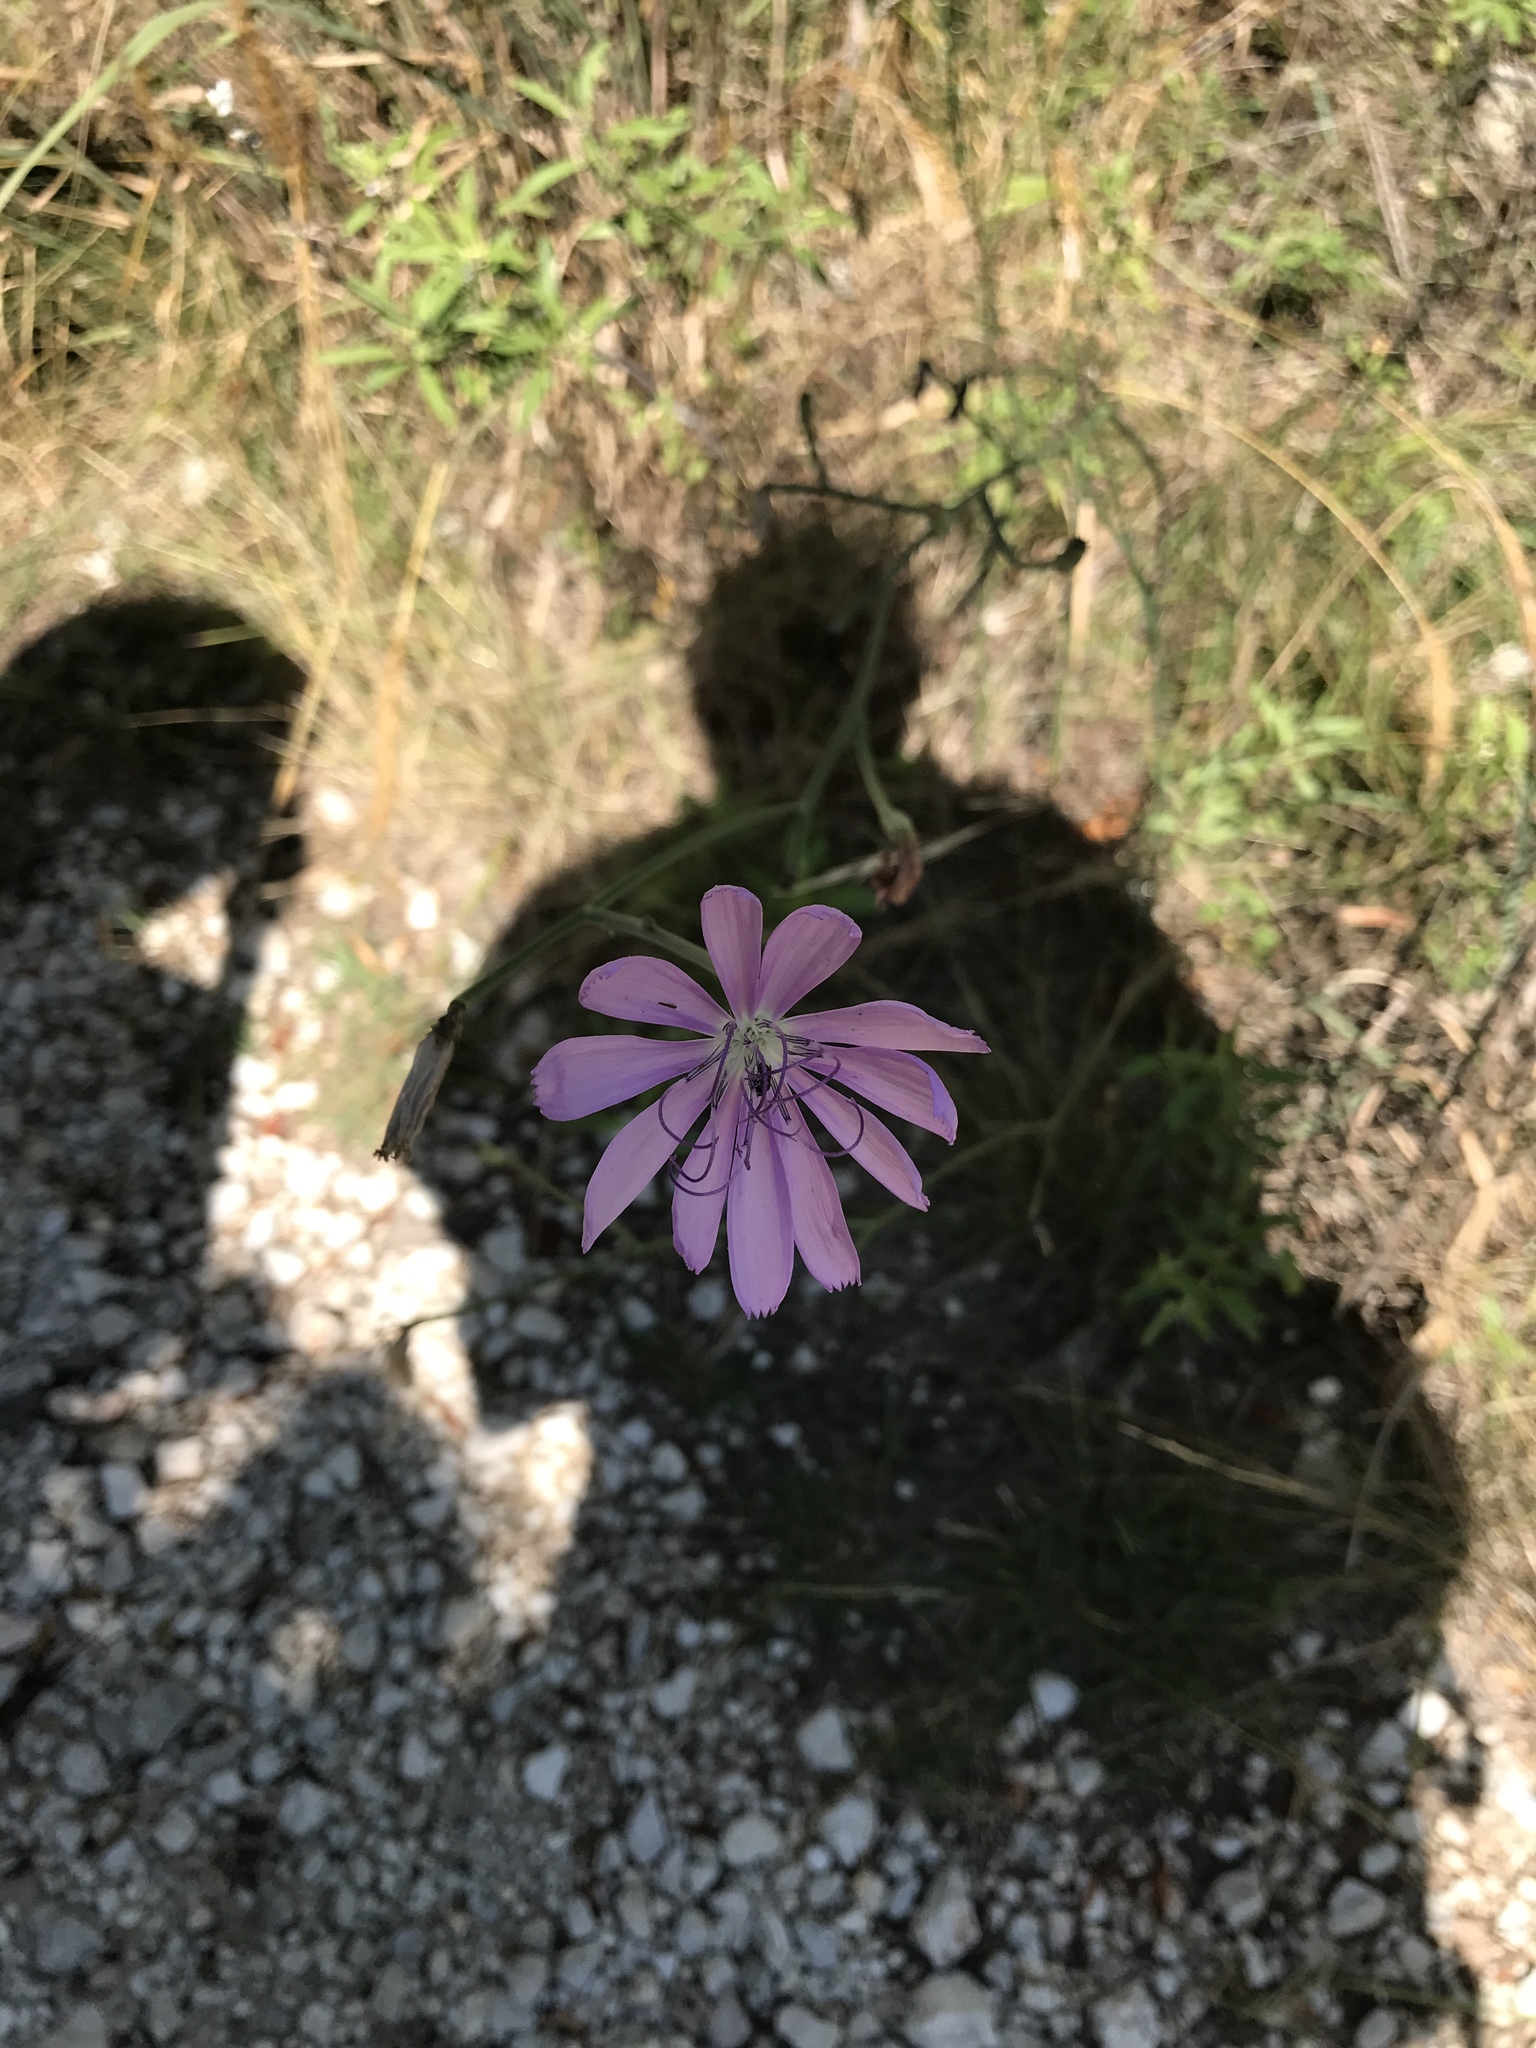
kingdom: Plantae
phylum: Tracheophyta
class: Magnoliopsida
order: Asterales
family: Asteraceae
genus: Lygodesmia
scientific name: Lygodesmia texana
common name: Texas skeleton-plant
